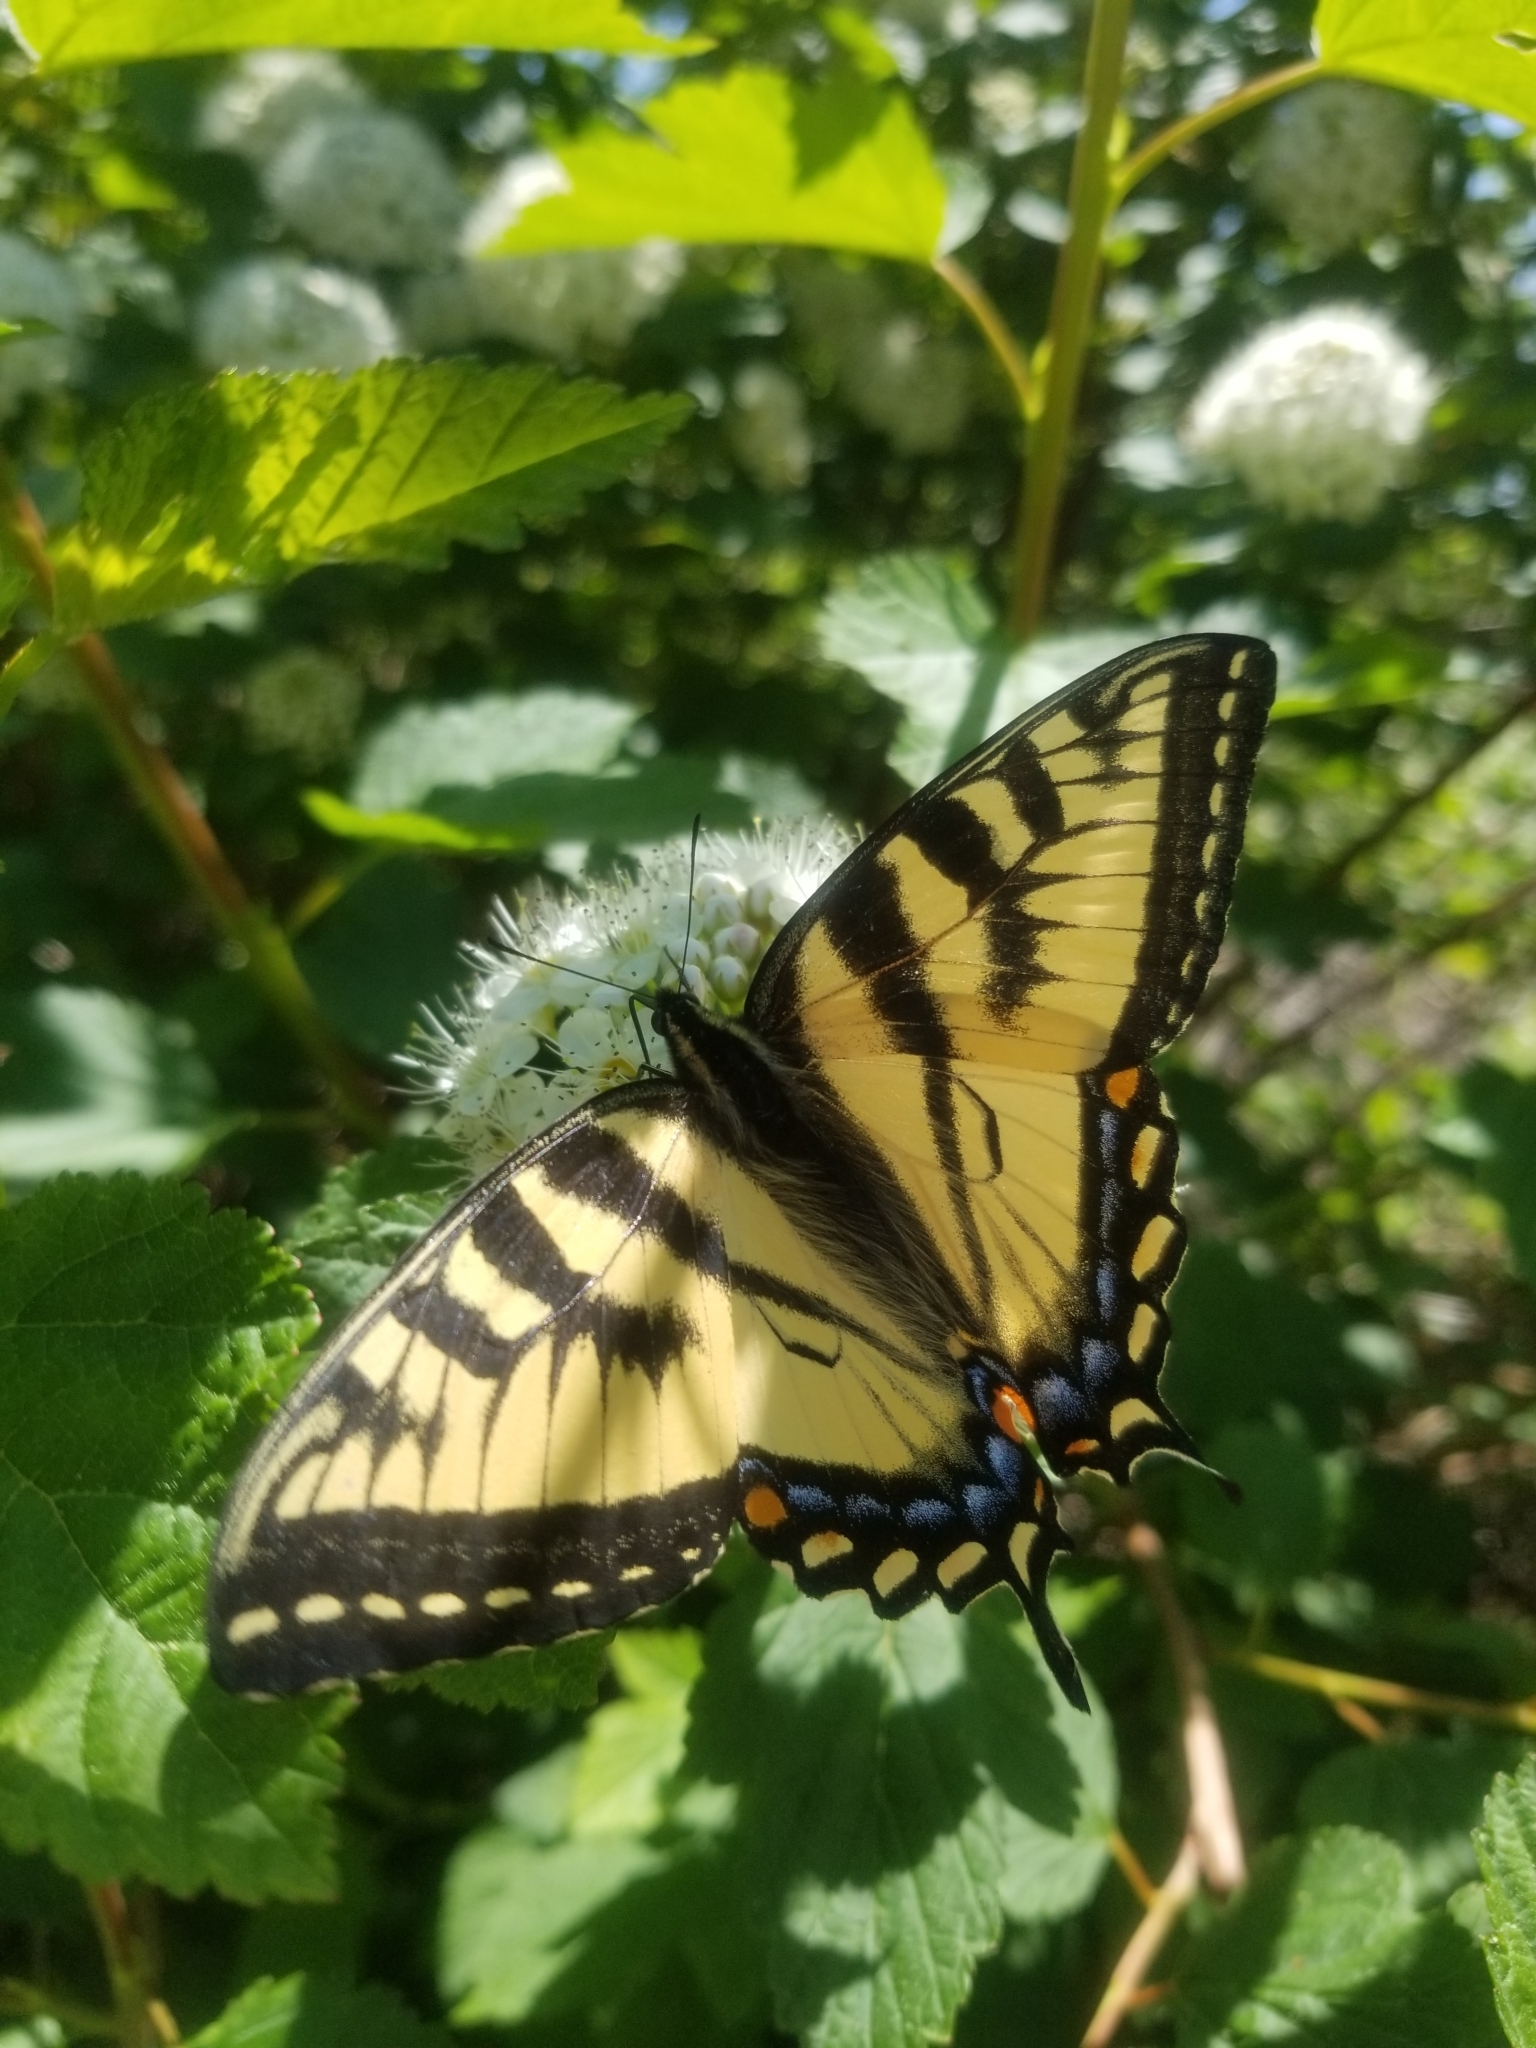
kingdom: Animalia
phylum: Arthropoda
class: Insecta
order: Lepidoptera
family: Papilionidae
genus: Papilio
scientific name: Papilio canadensis
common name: Canadian tiger swallowtail
